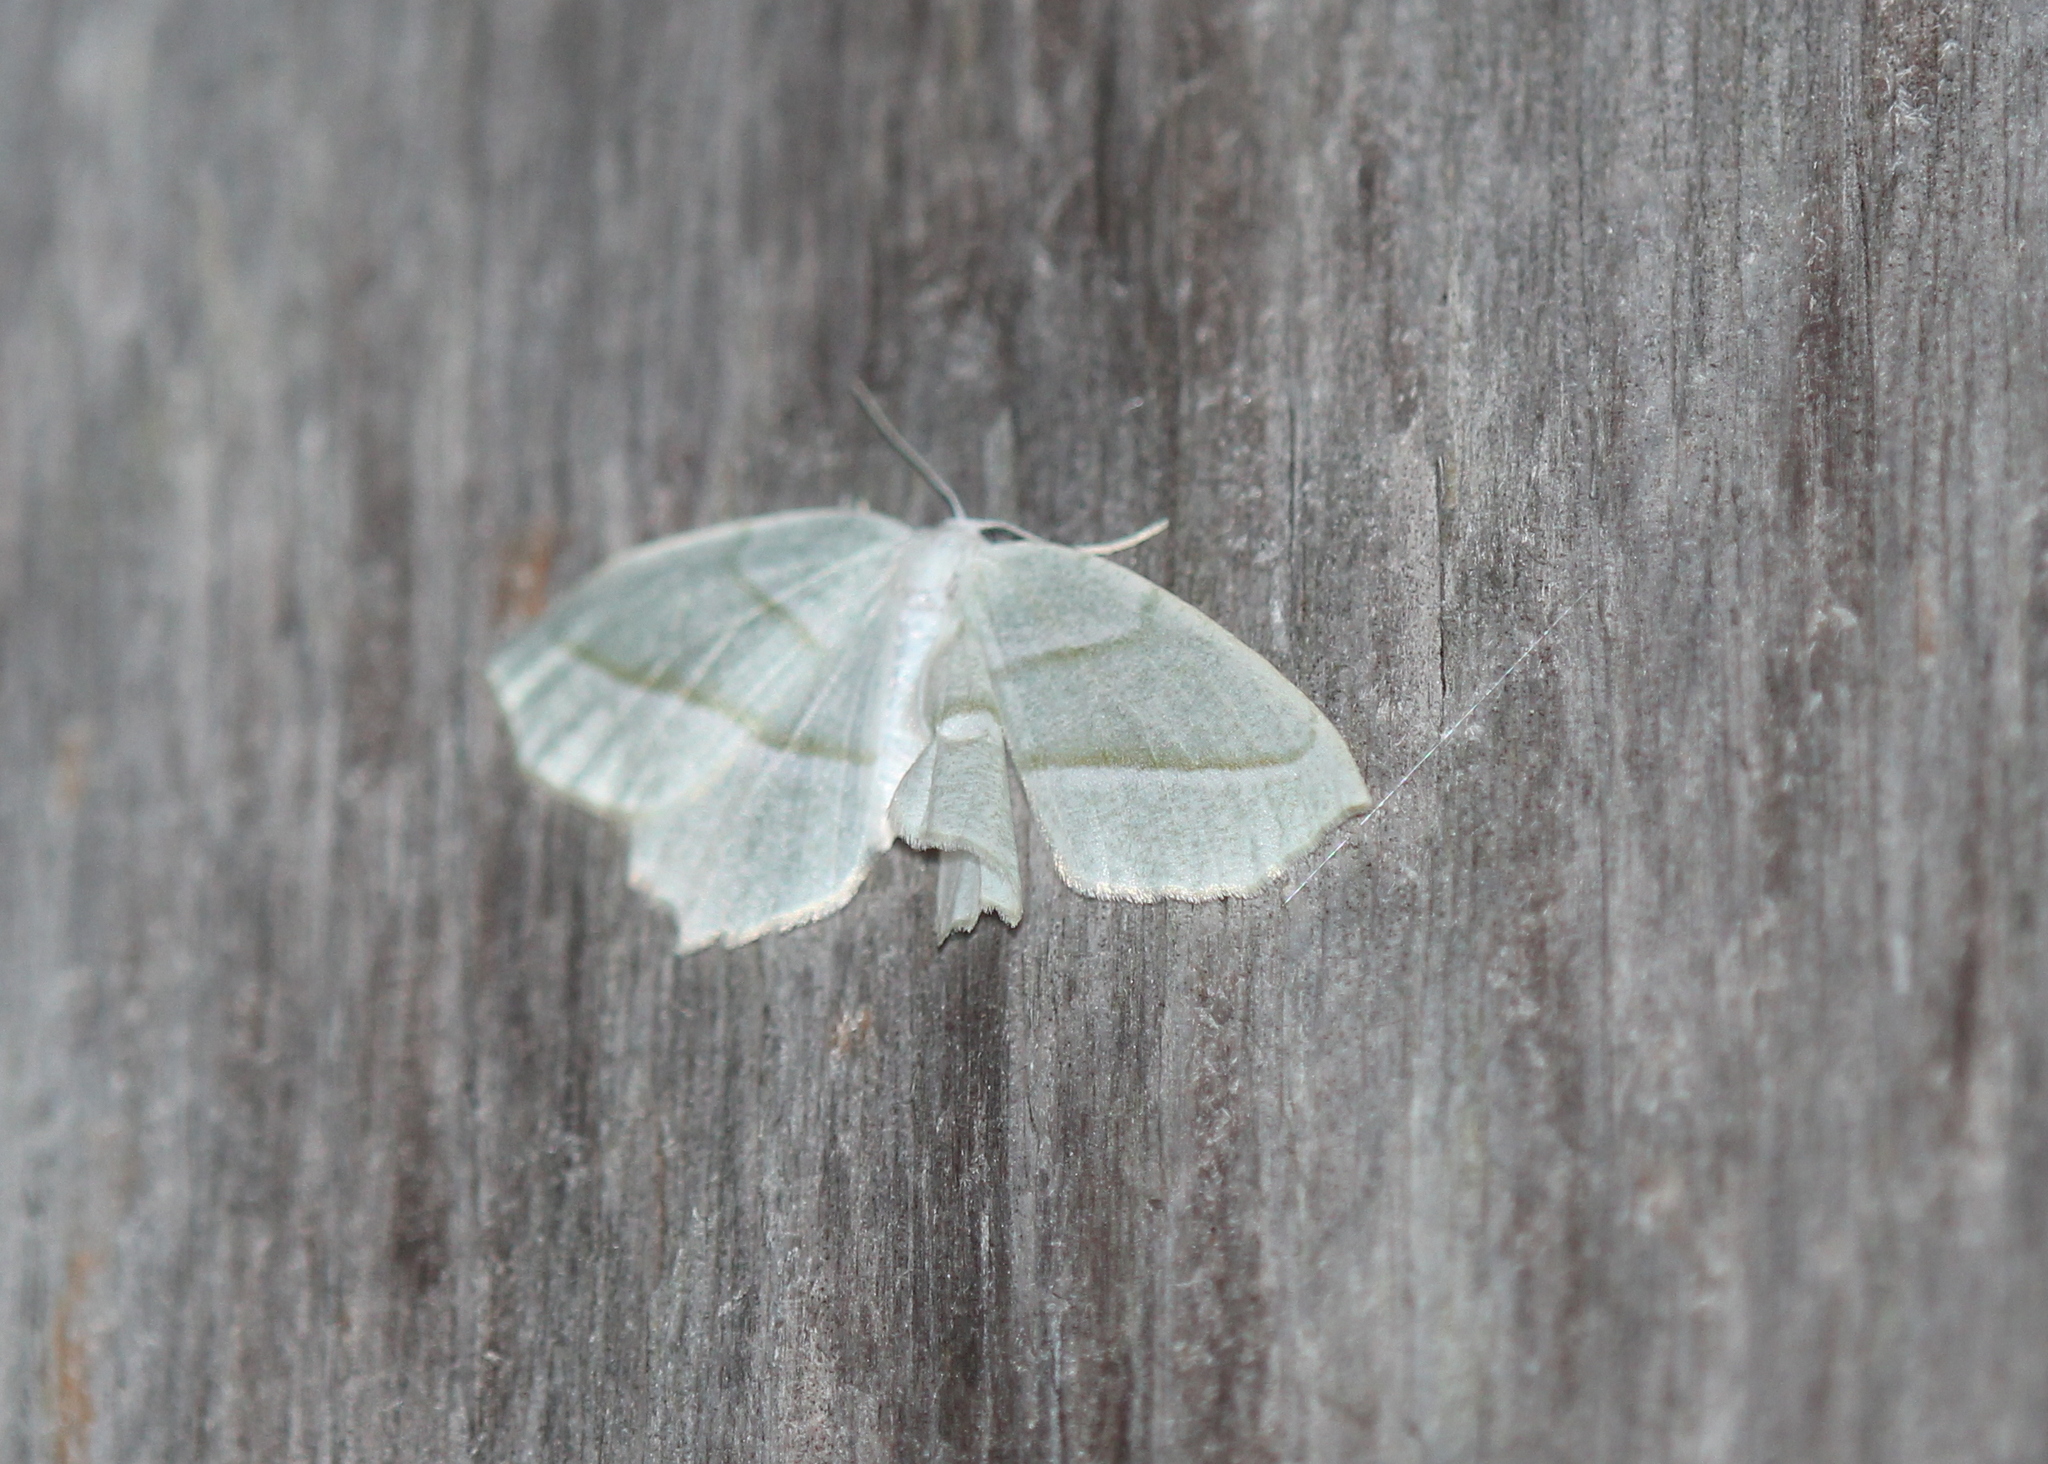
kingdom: Animalia
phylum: Arthropoda
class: Insecta
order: Lepidoptera
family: Geometridae
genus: Campaea
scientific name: Campaea perlata
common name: Fringed looper
